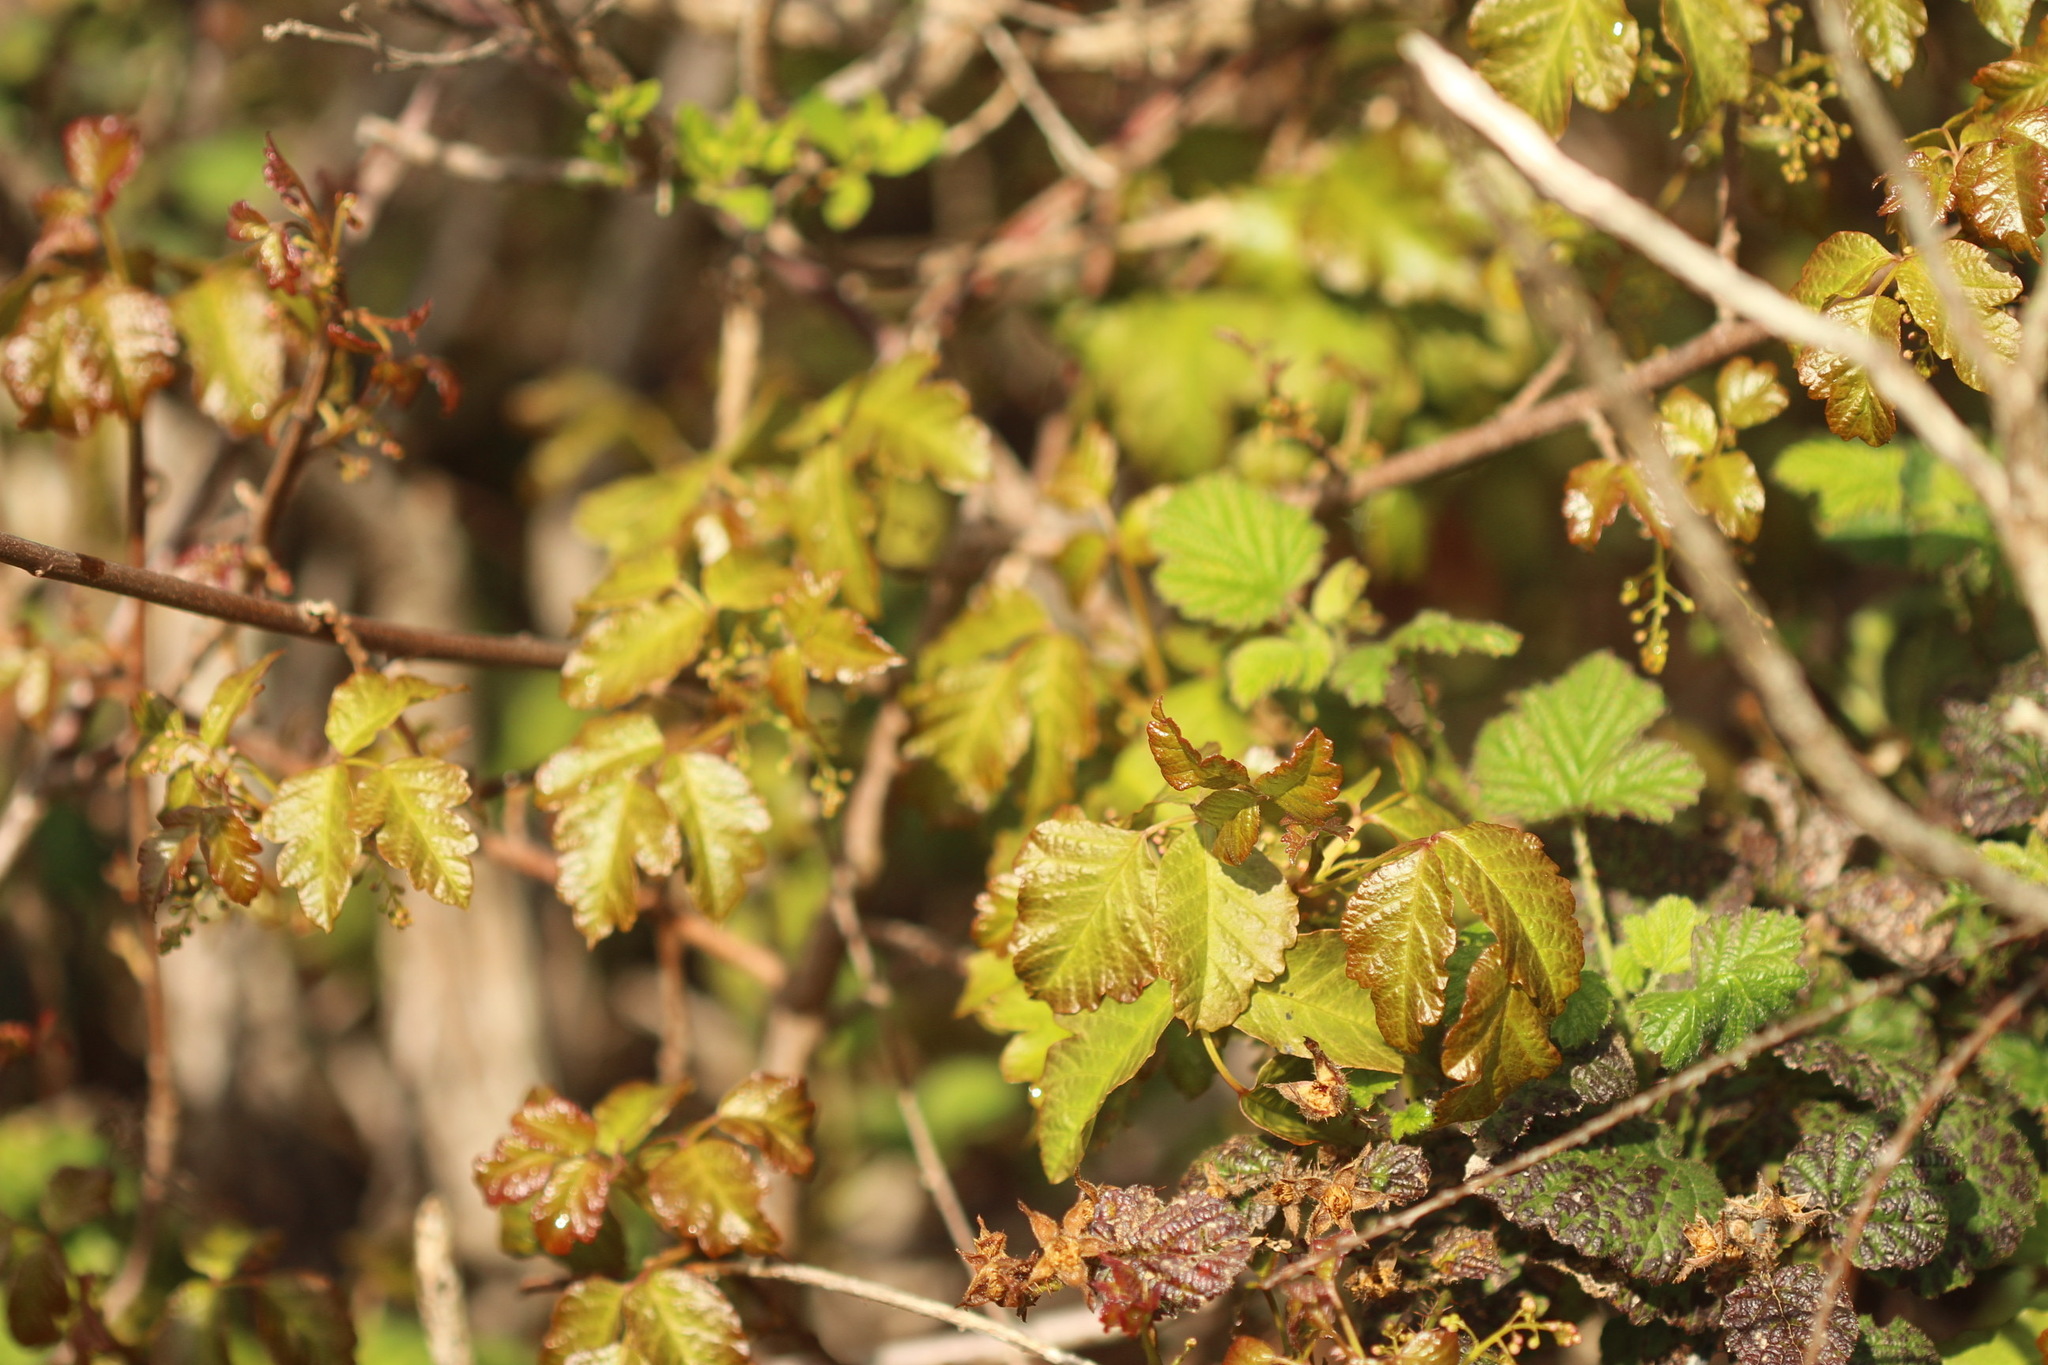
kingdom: Plantae
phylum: Tracheophyta
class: Magnoliopsida
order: Sapindales
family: Anacardiaceae
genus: Toxicodendron
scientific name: Toxicodendron diversilobum
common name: Pacific poison-oak
